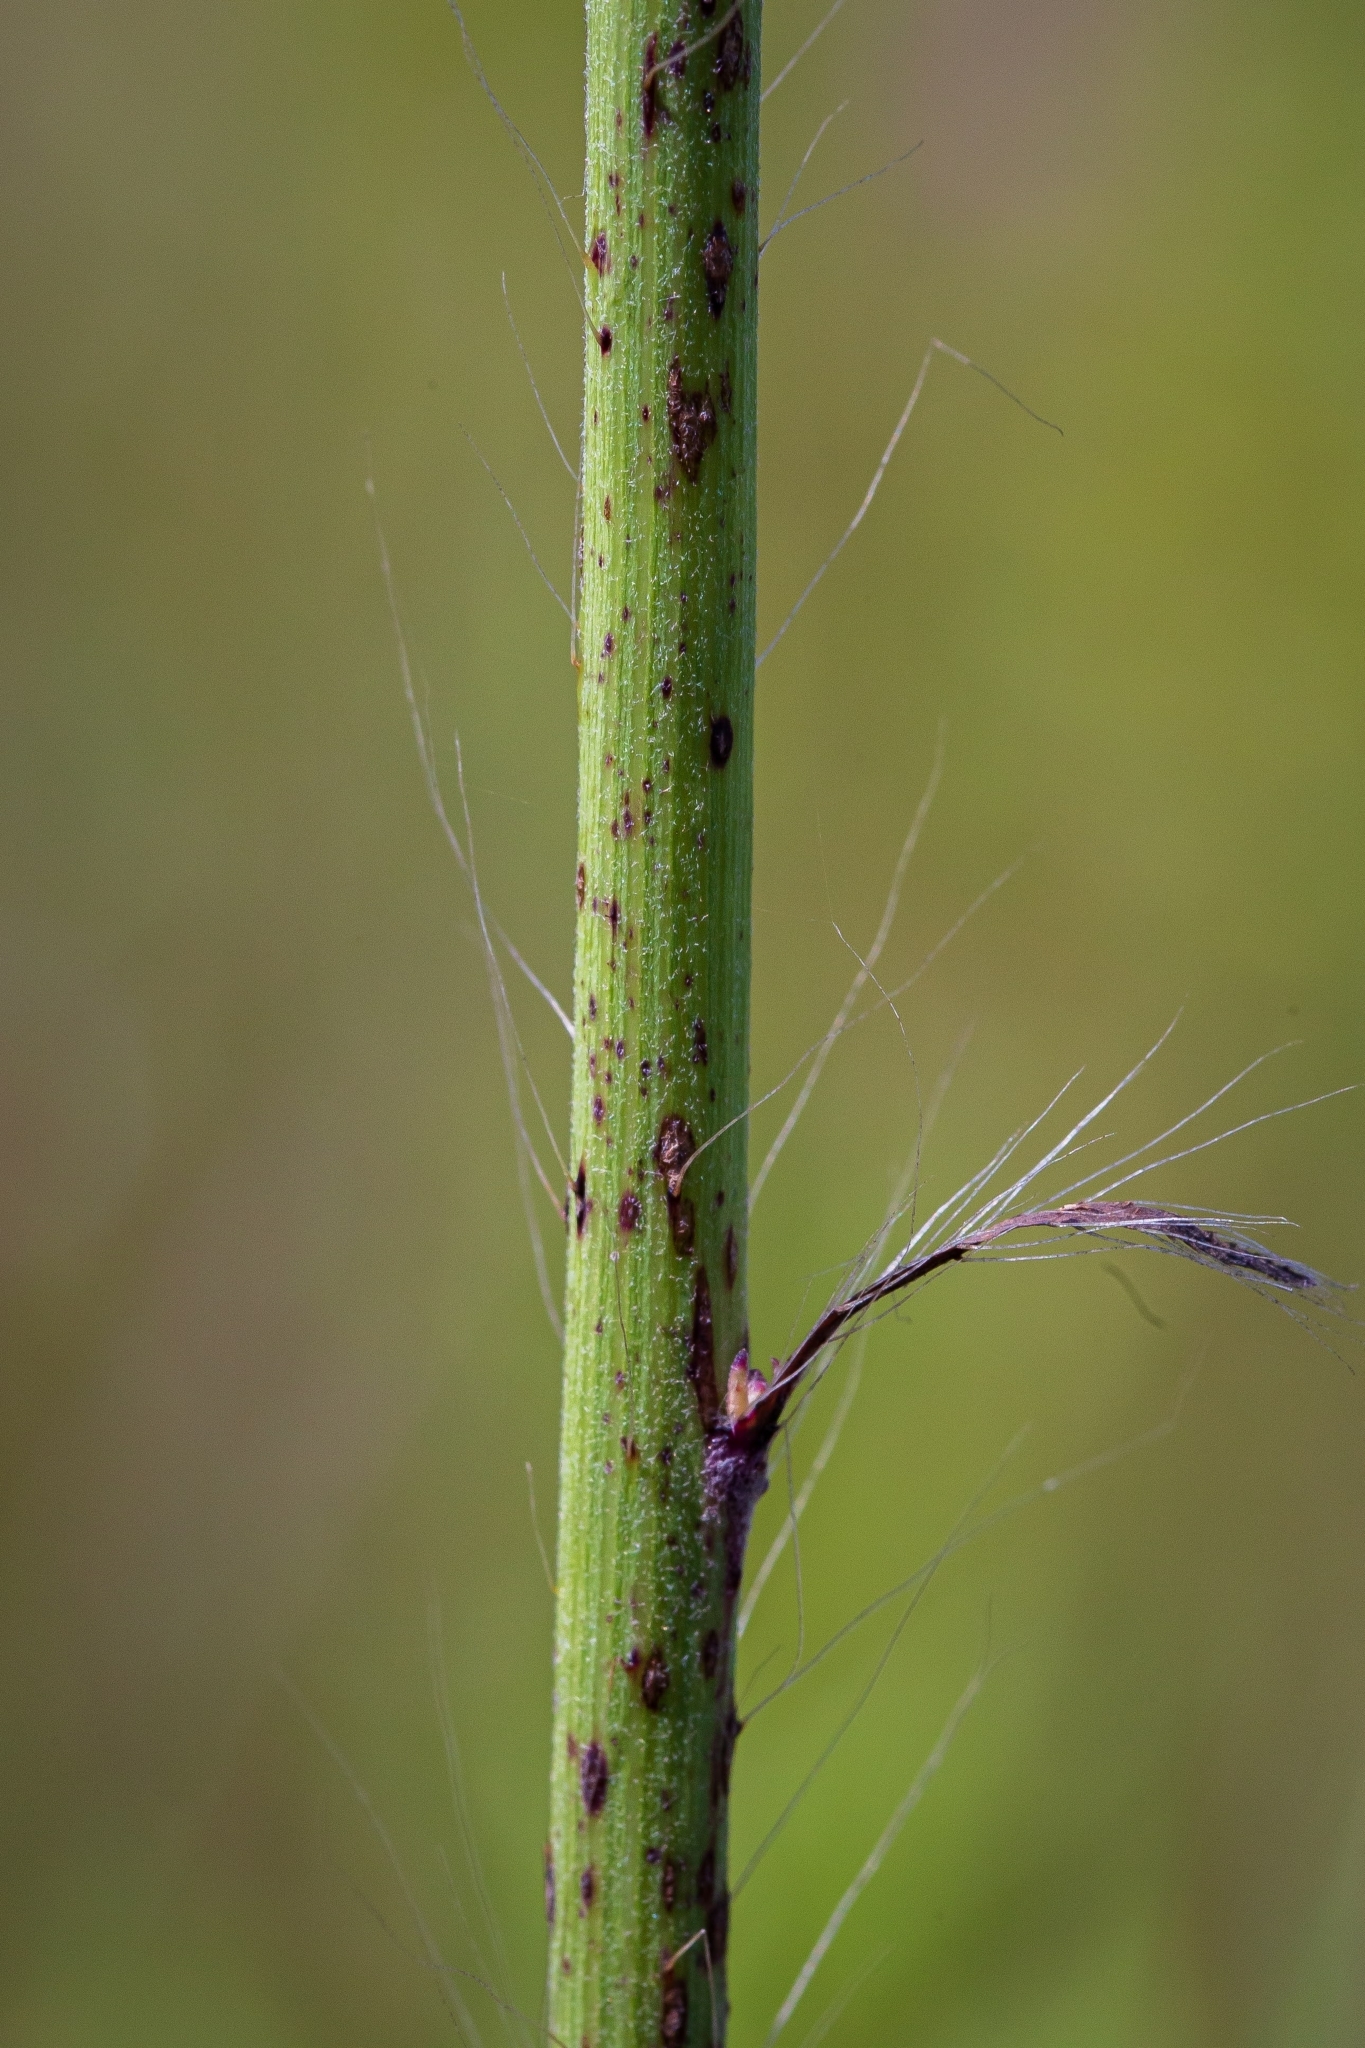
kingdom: Plantae
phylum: Tracheophyta
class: Magnoliopsida
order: Asterales
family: Asteraceae
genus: Hieracium
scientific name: Hieracium longipilum
